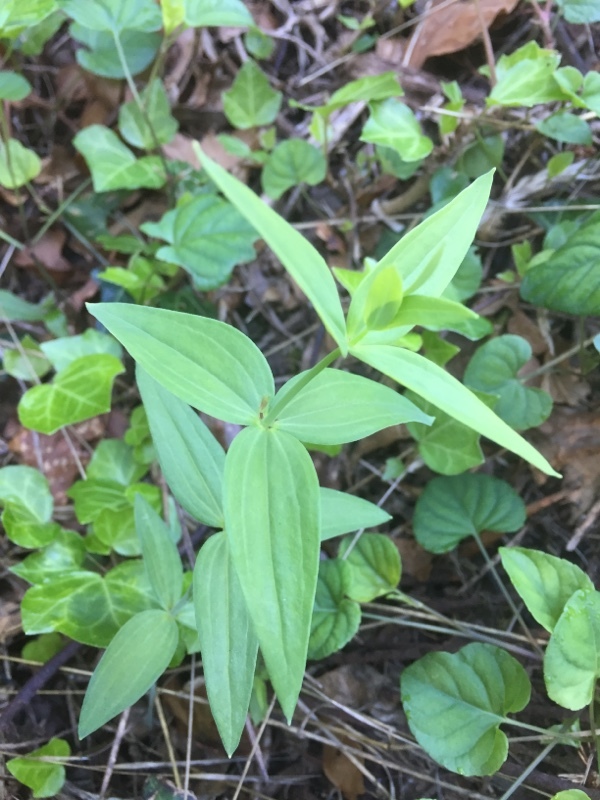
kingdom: Plantae
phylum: Tracheophyta
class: Magnoliopsida
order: Lamiales
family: Plantaginaceae
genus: Linaria
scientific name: Linaria triornithophora
